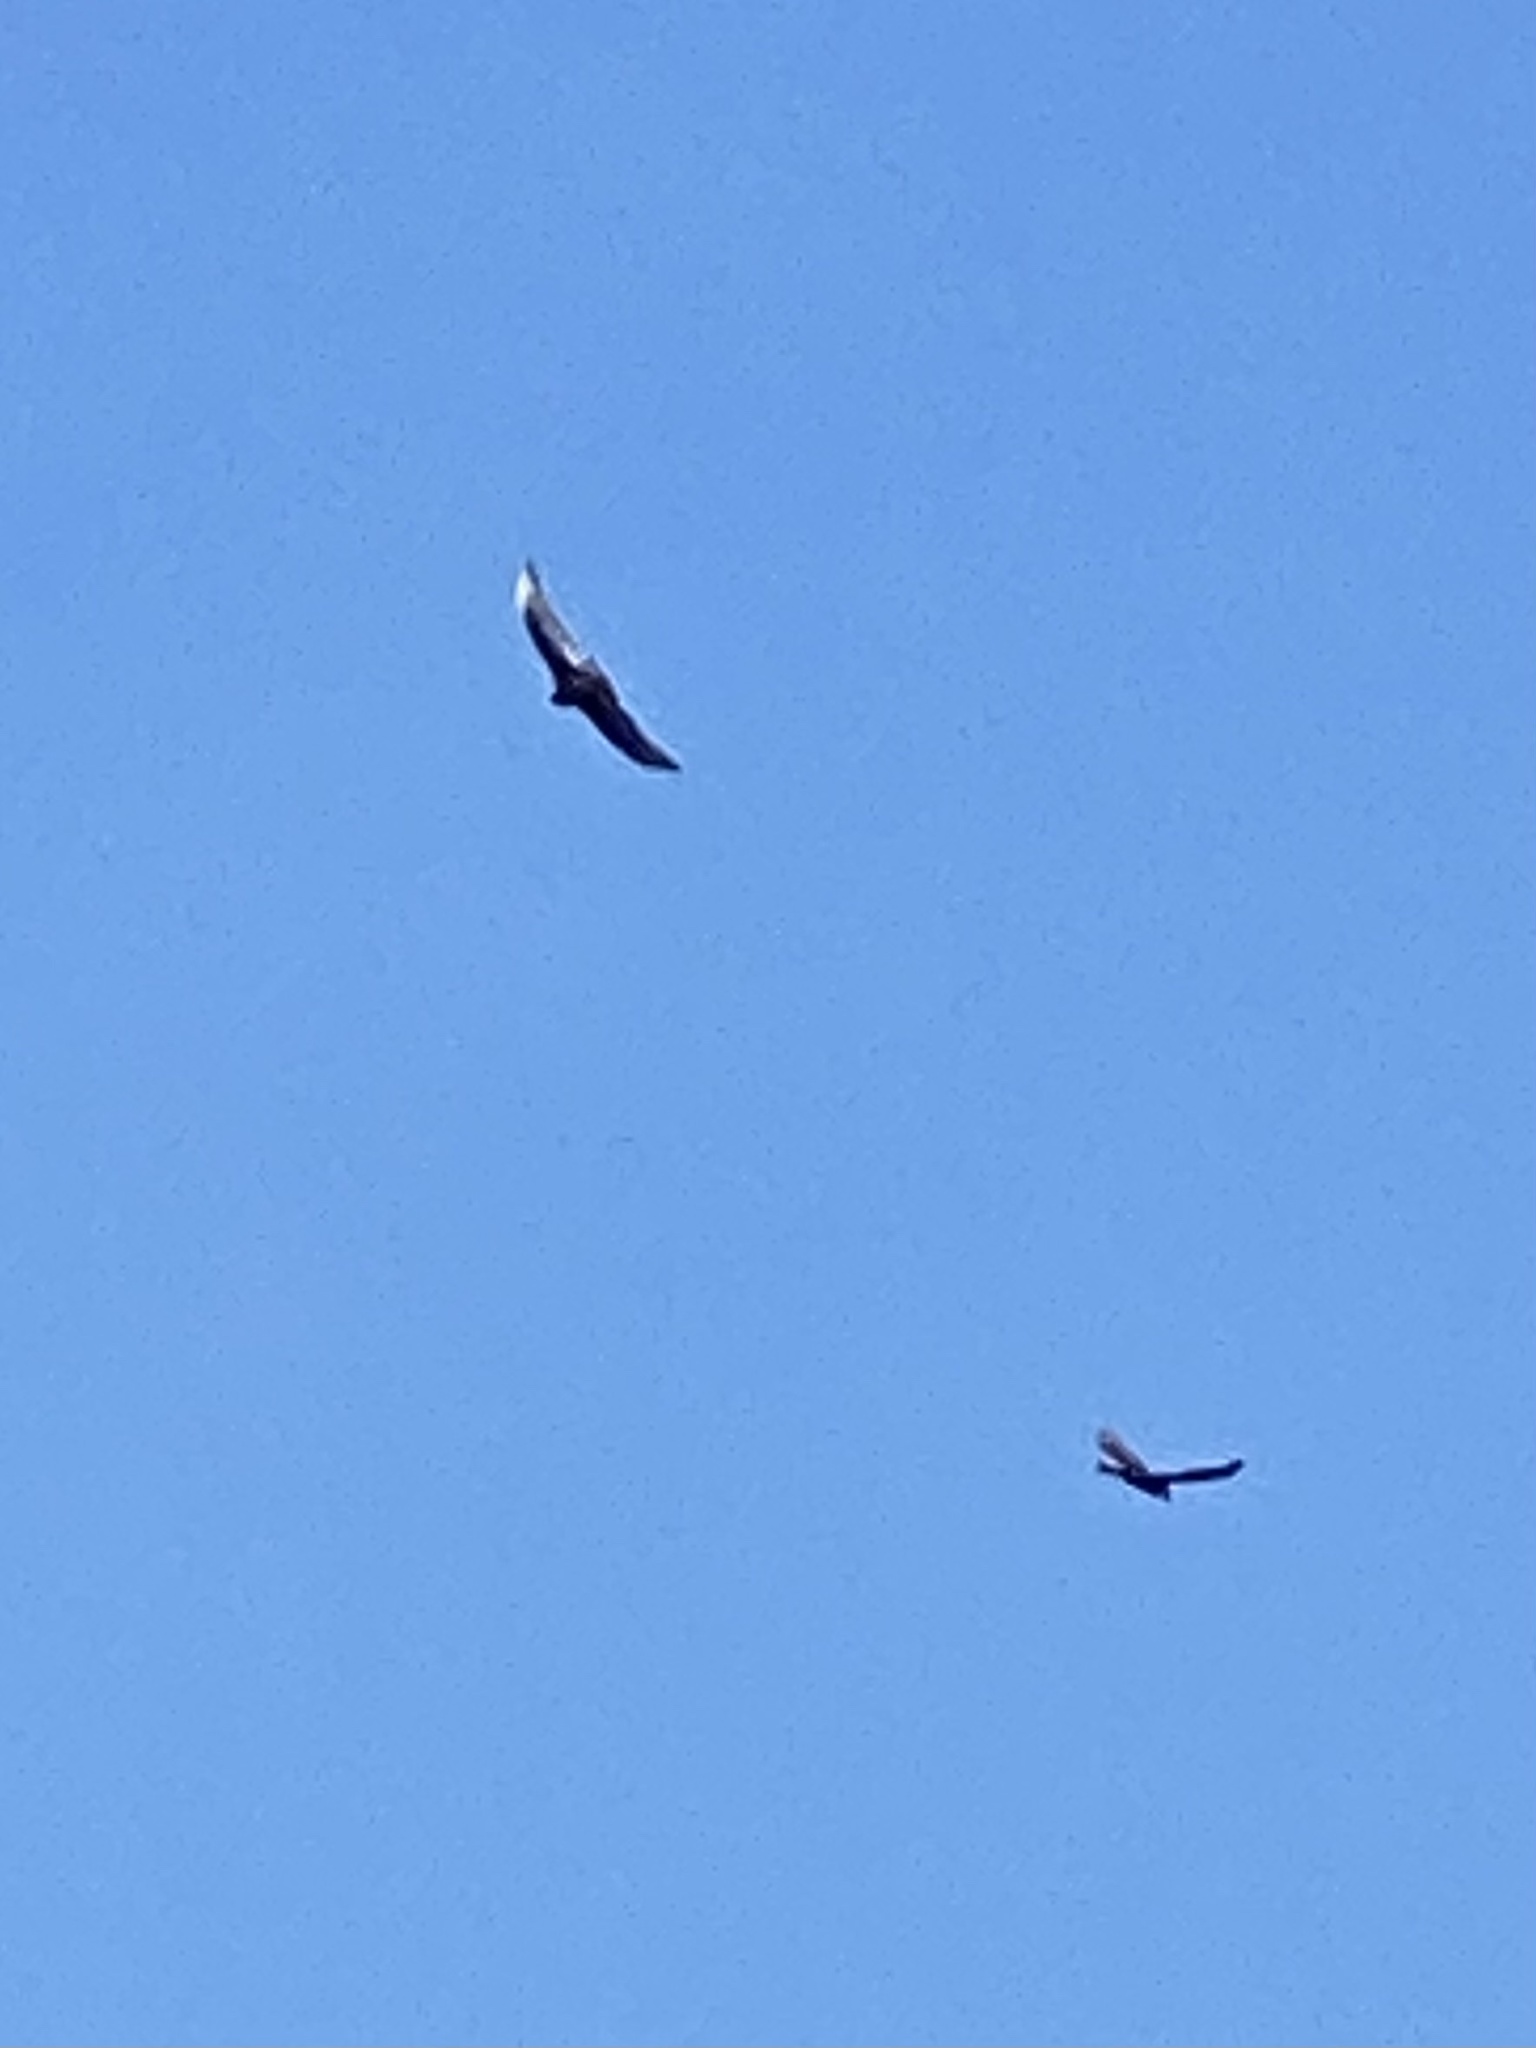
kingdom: Animalia
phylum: Chordata
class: Aves
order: Accipitriformes
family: Cathartidae
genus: Cathartes
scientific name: Cathartes aura
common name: Turkey vulture
